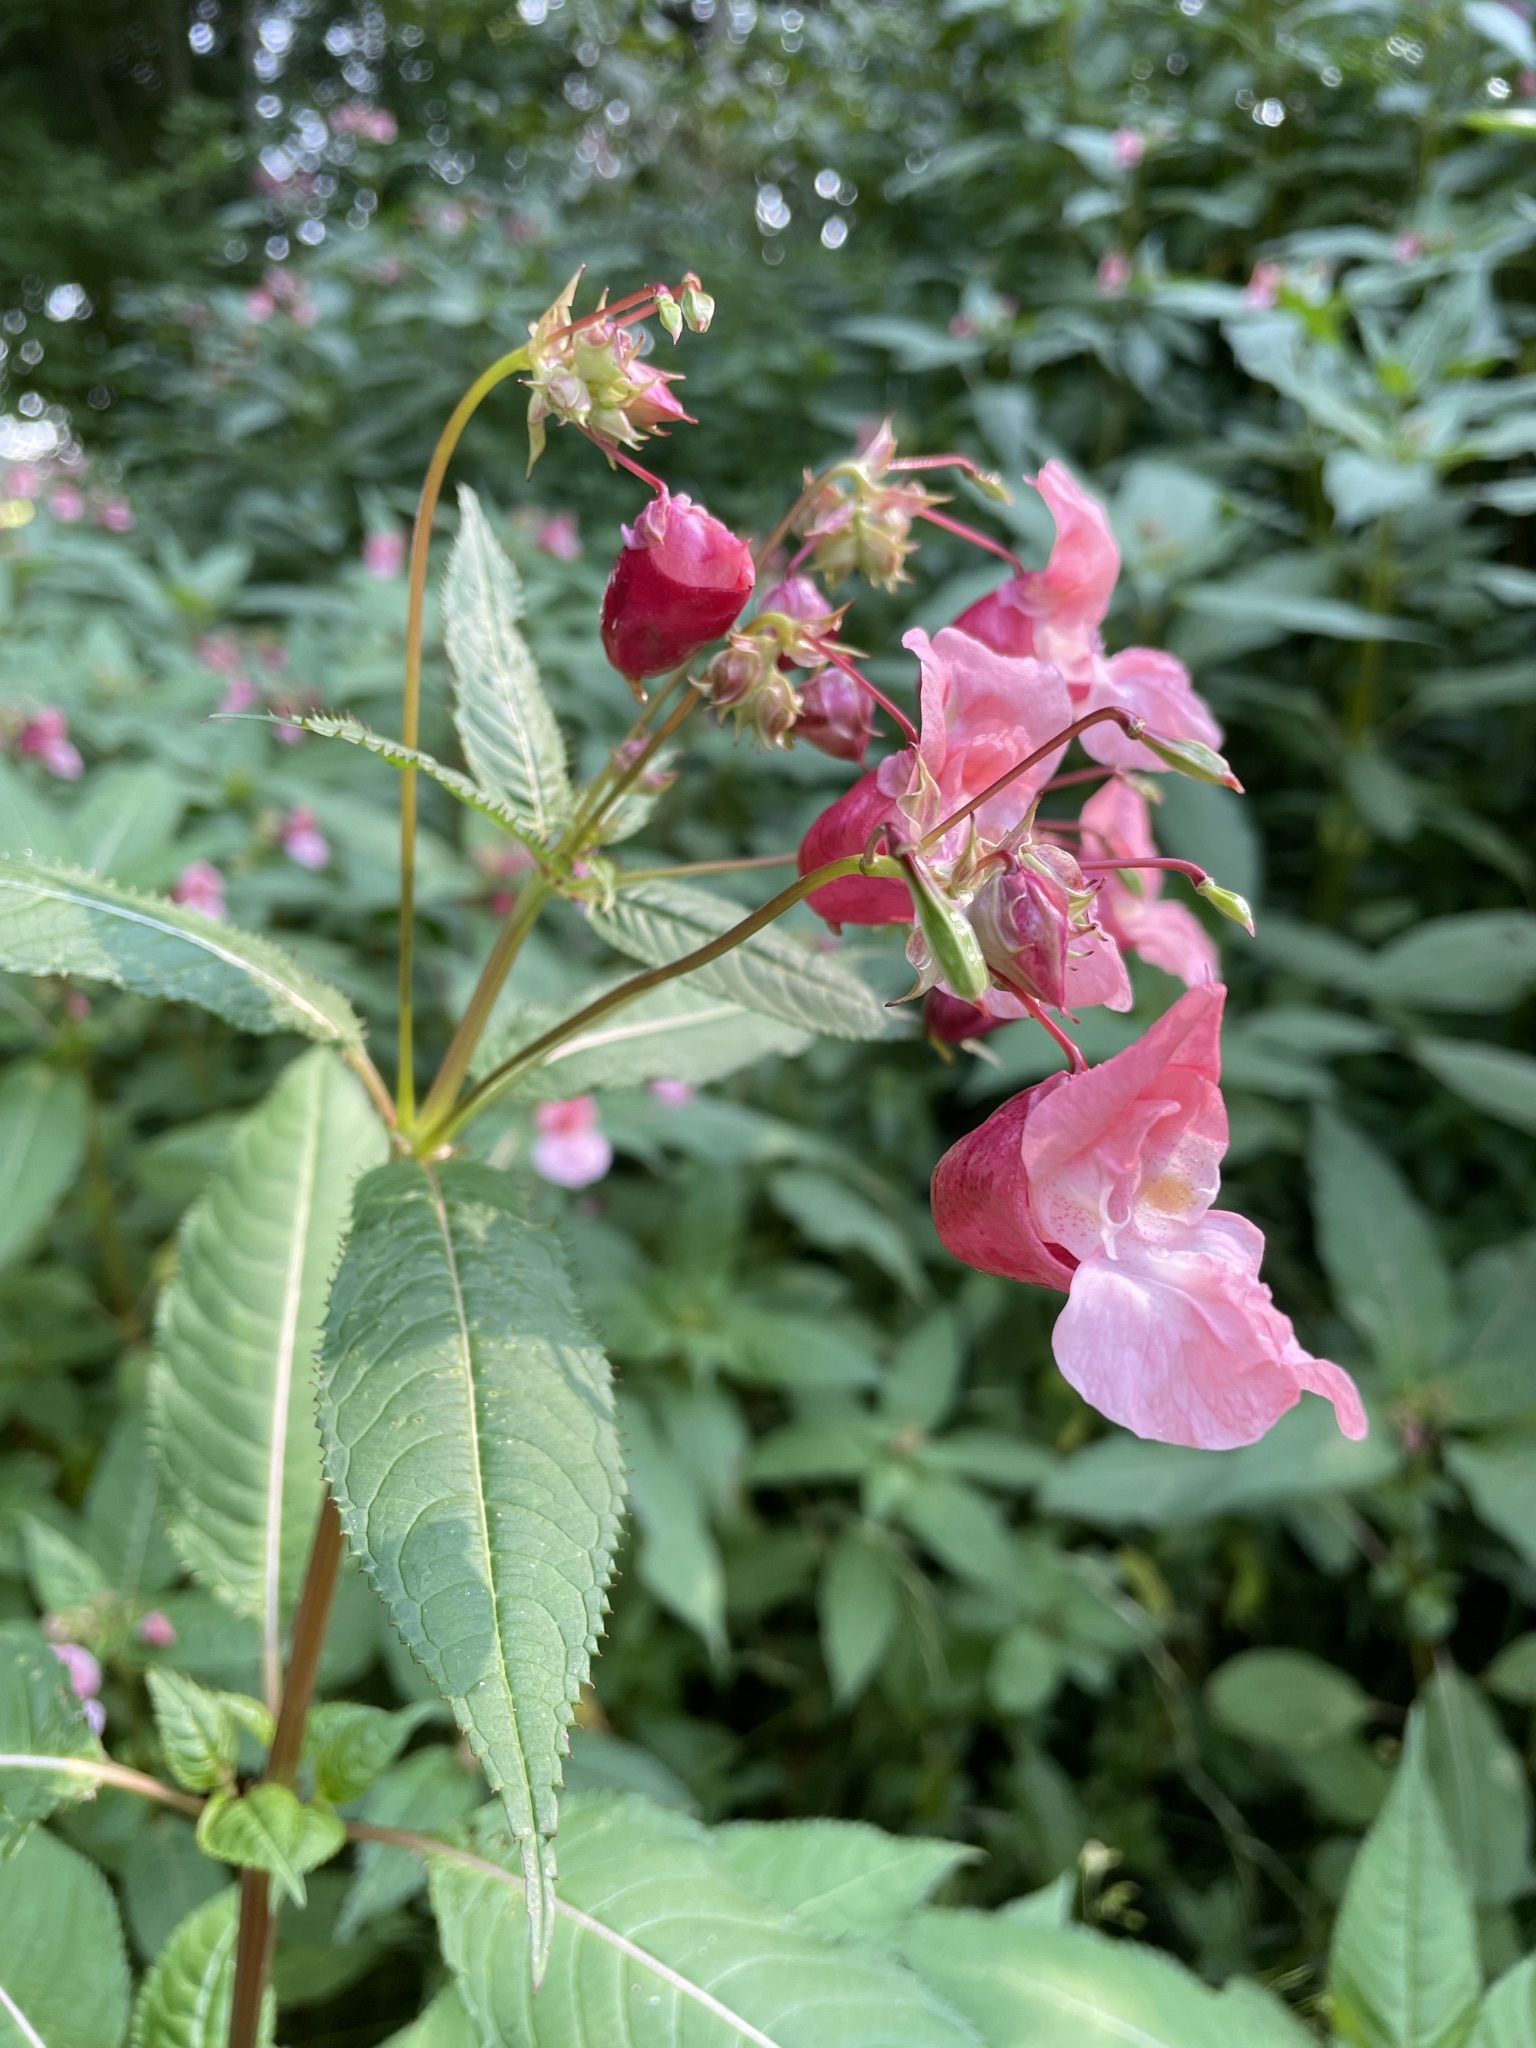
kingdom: Plantae
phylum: Tracheophyta
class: Magnoliopsida
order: Ericales
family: Balsaminaceae
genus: Impatiens
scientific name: Impatiens glandulifera
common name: Himalayan balsam
